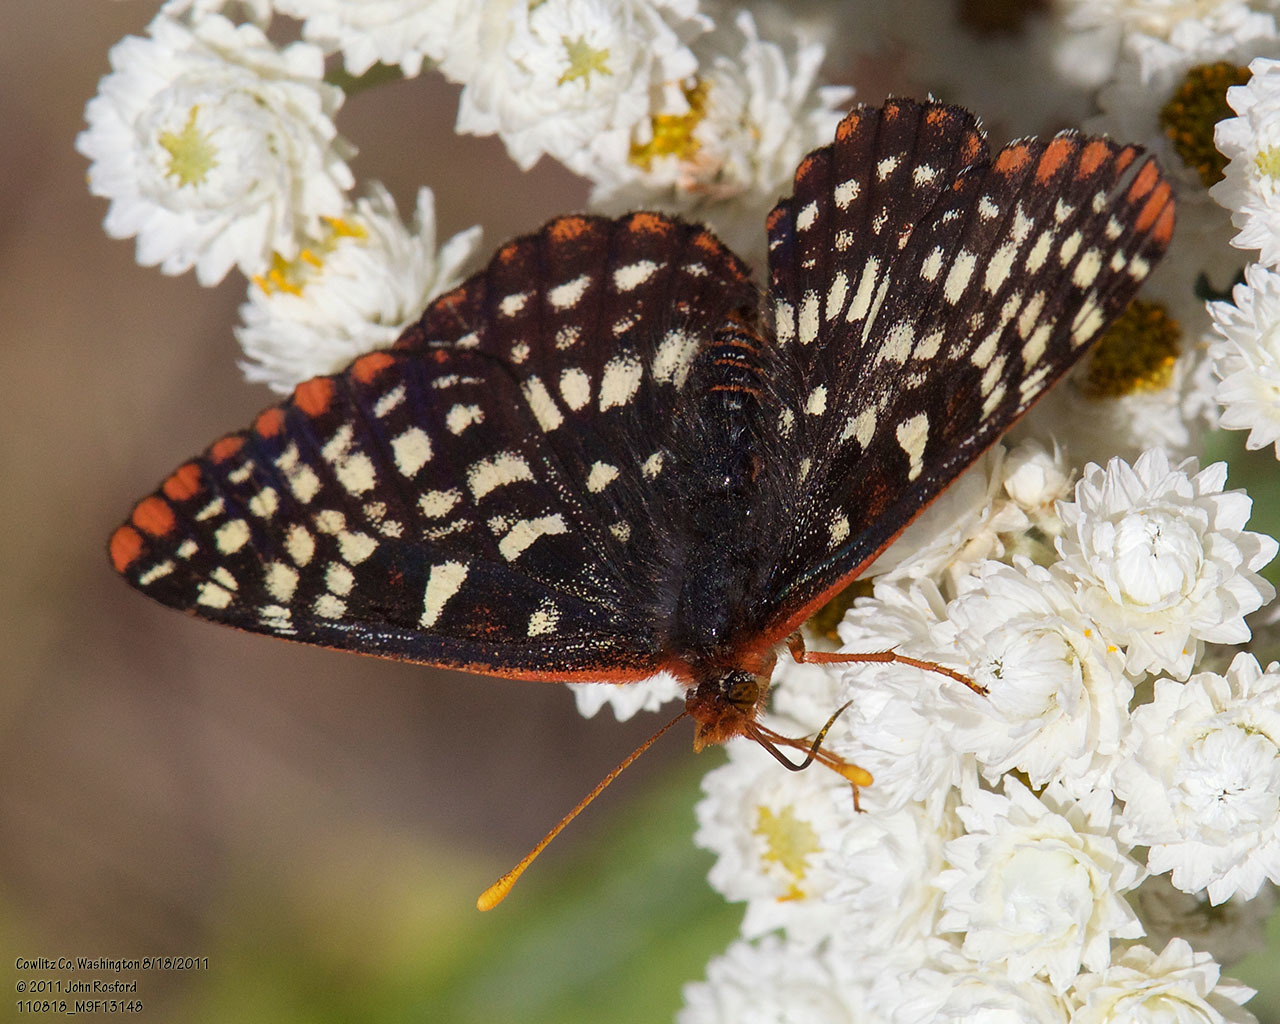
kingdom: Animalia
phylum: Arthropoda
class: Insecta
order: Lepidoptera
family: Nymphalidae
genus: Occidryas
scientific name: Occidryas colon
